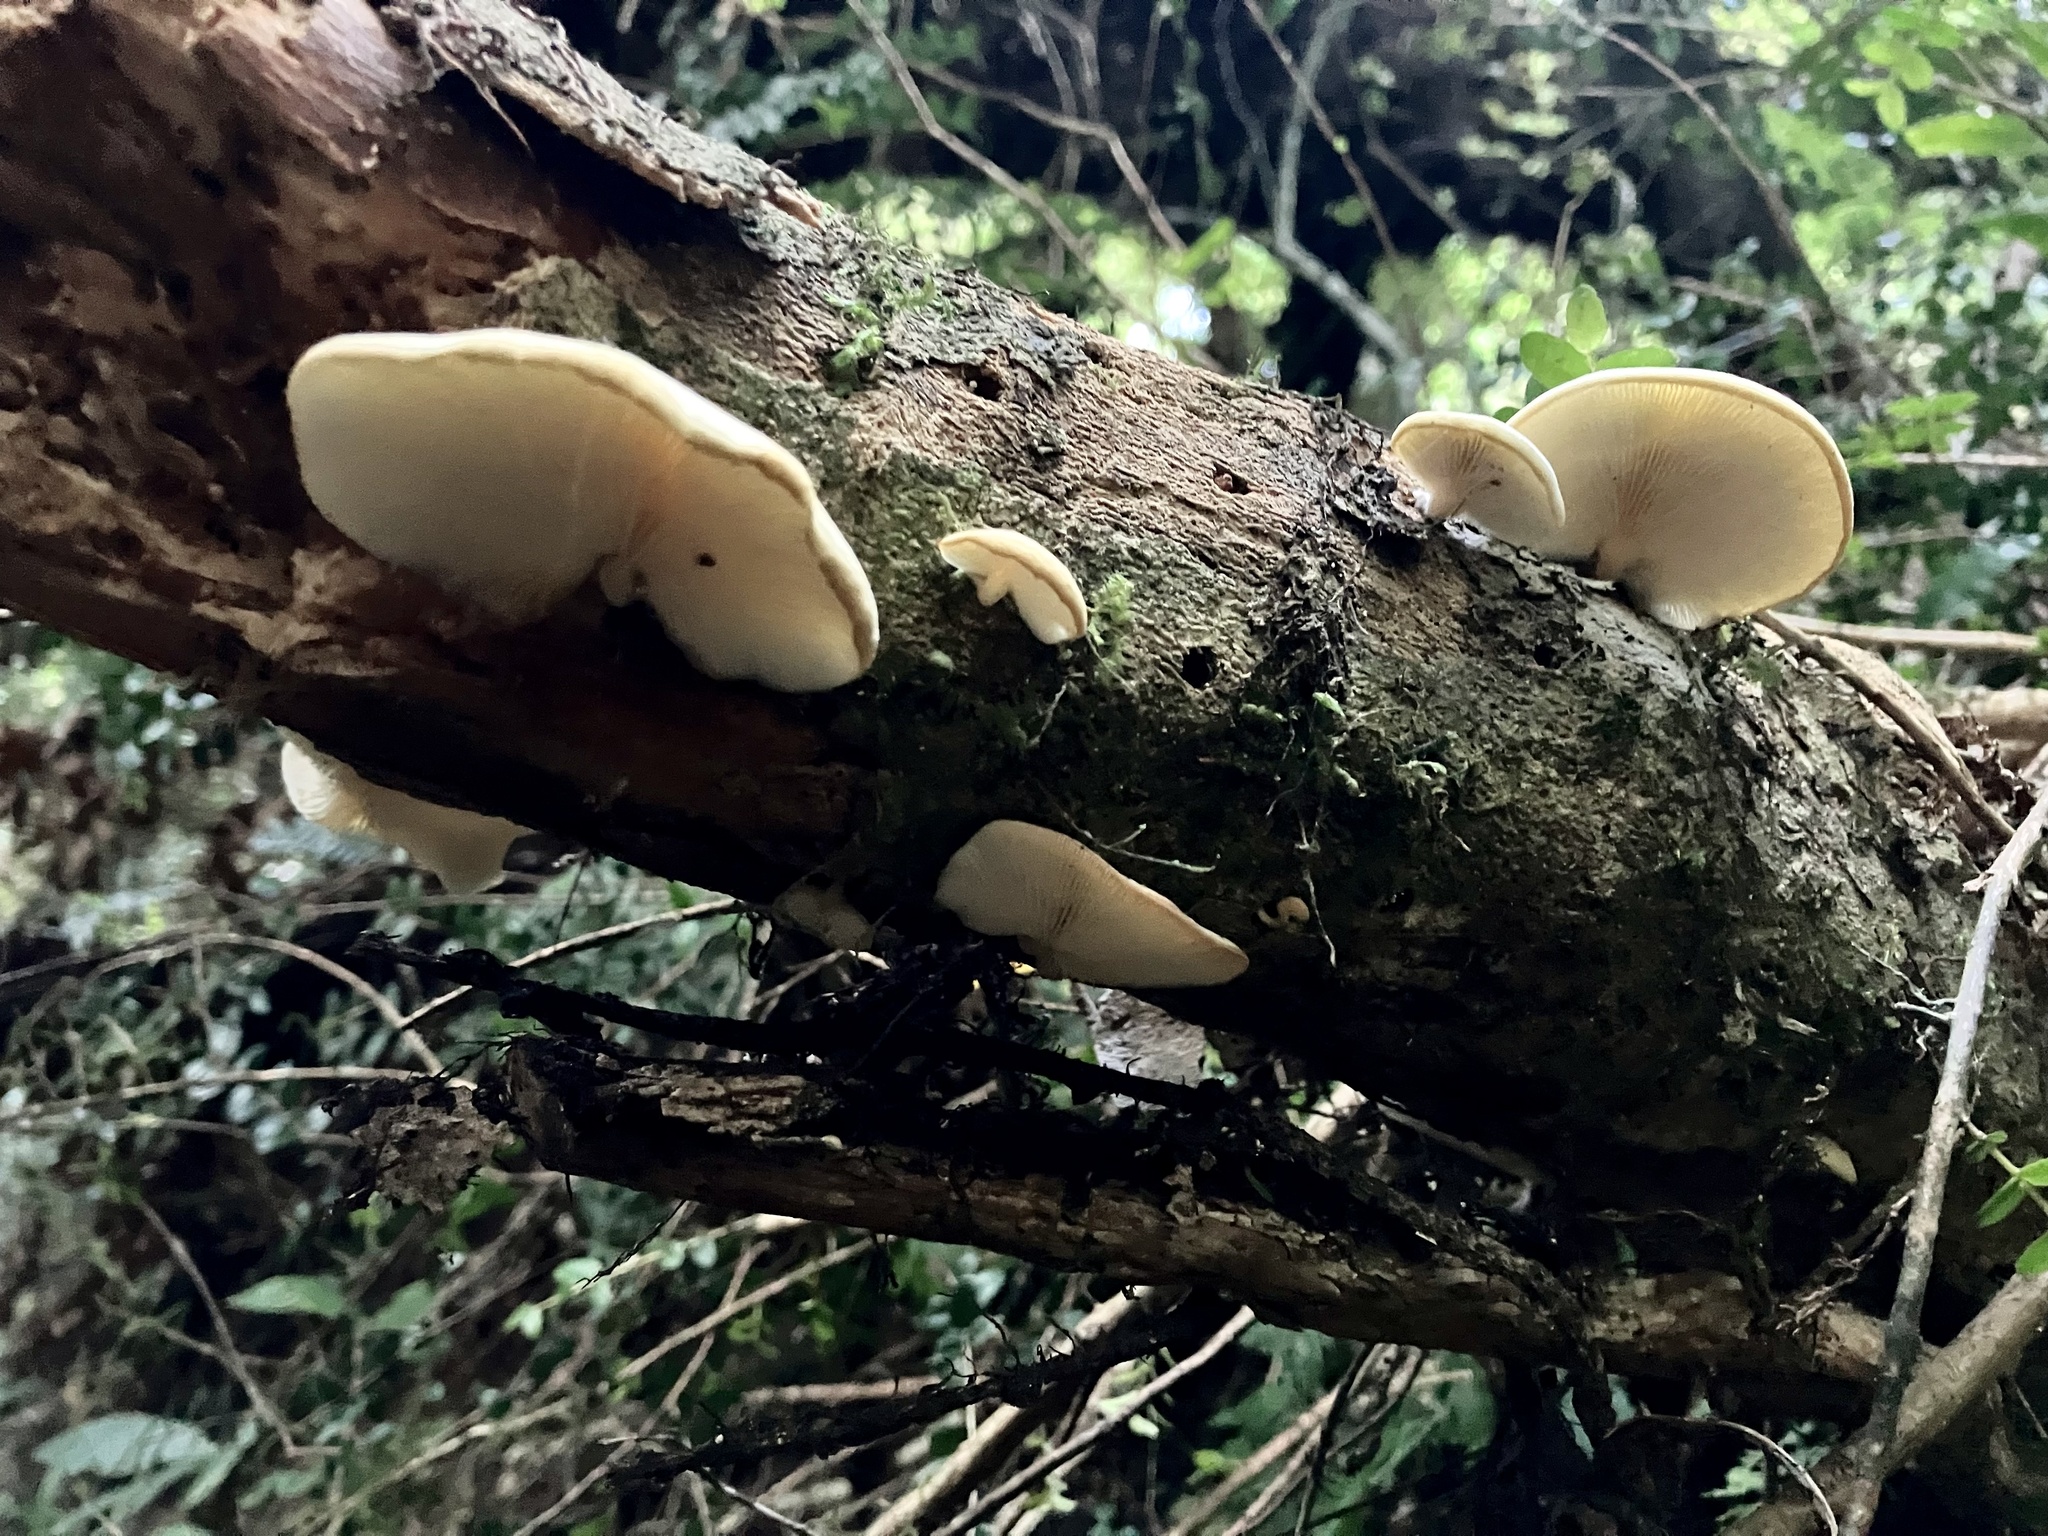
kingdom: Fungi
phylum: Basidiomycota
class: Agaricomycetes
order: Agaricales
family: Tricholomataceae
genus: Conchomyces
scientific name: Conchomyces bursiformis
